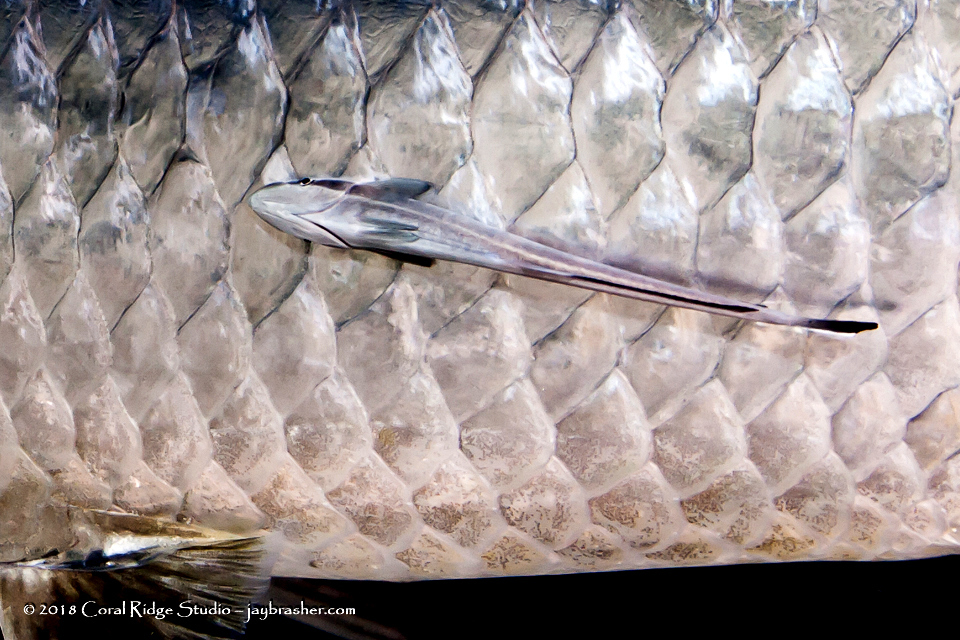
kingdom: Animalia
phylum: Chordata
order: Perciformes
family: Echeneidae
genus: Echeneis
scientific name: Echeneis naucrates
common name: Sharksucker
